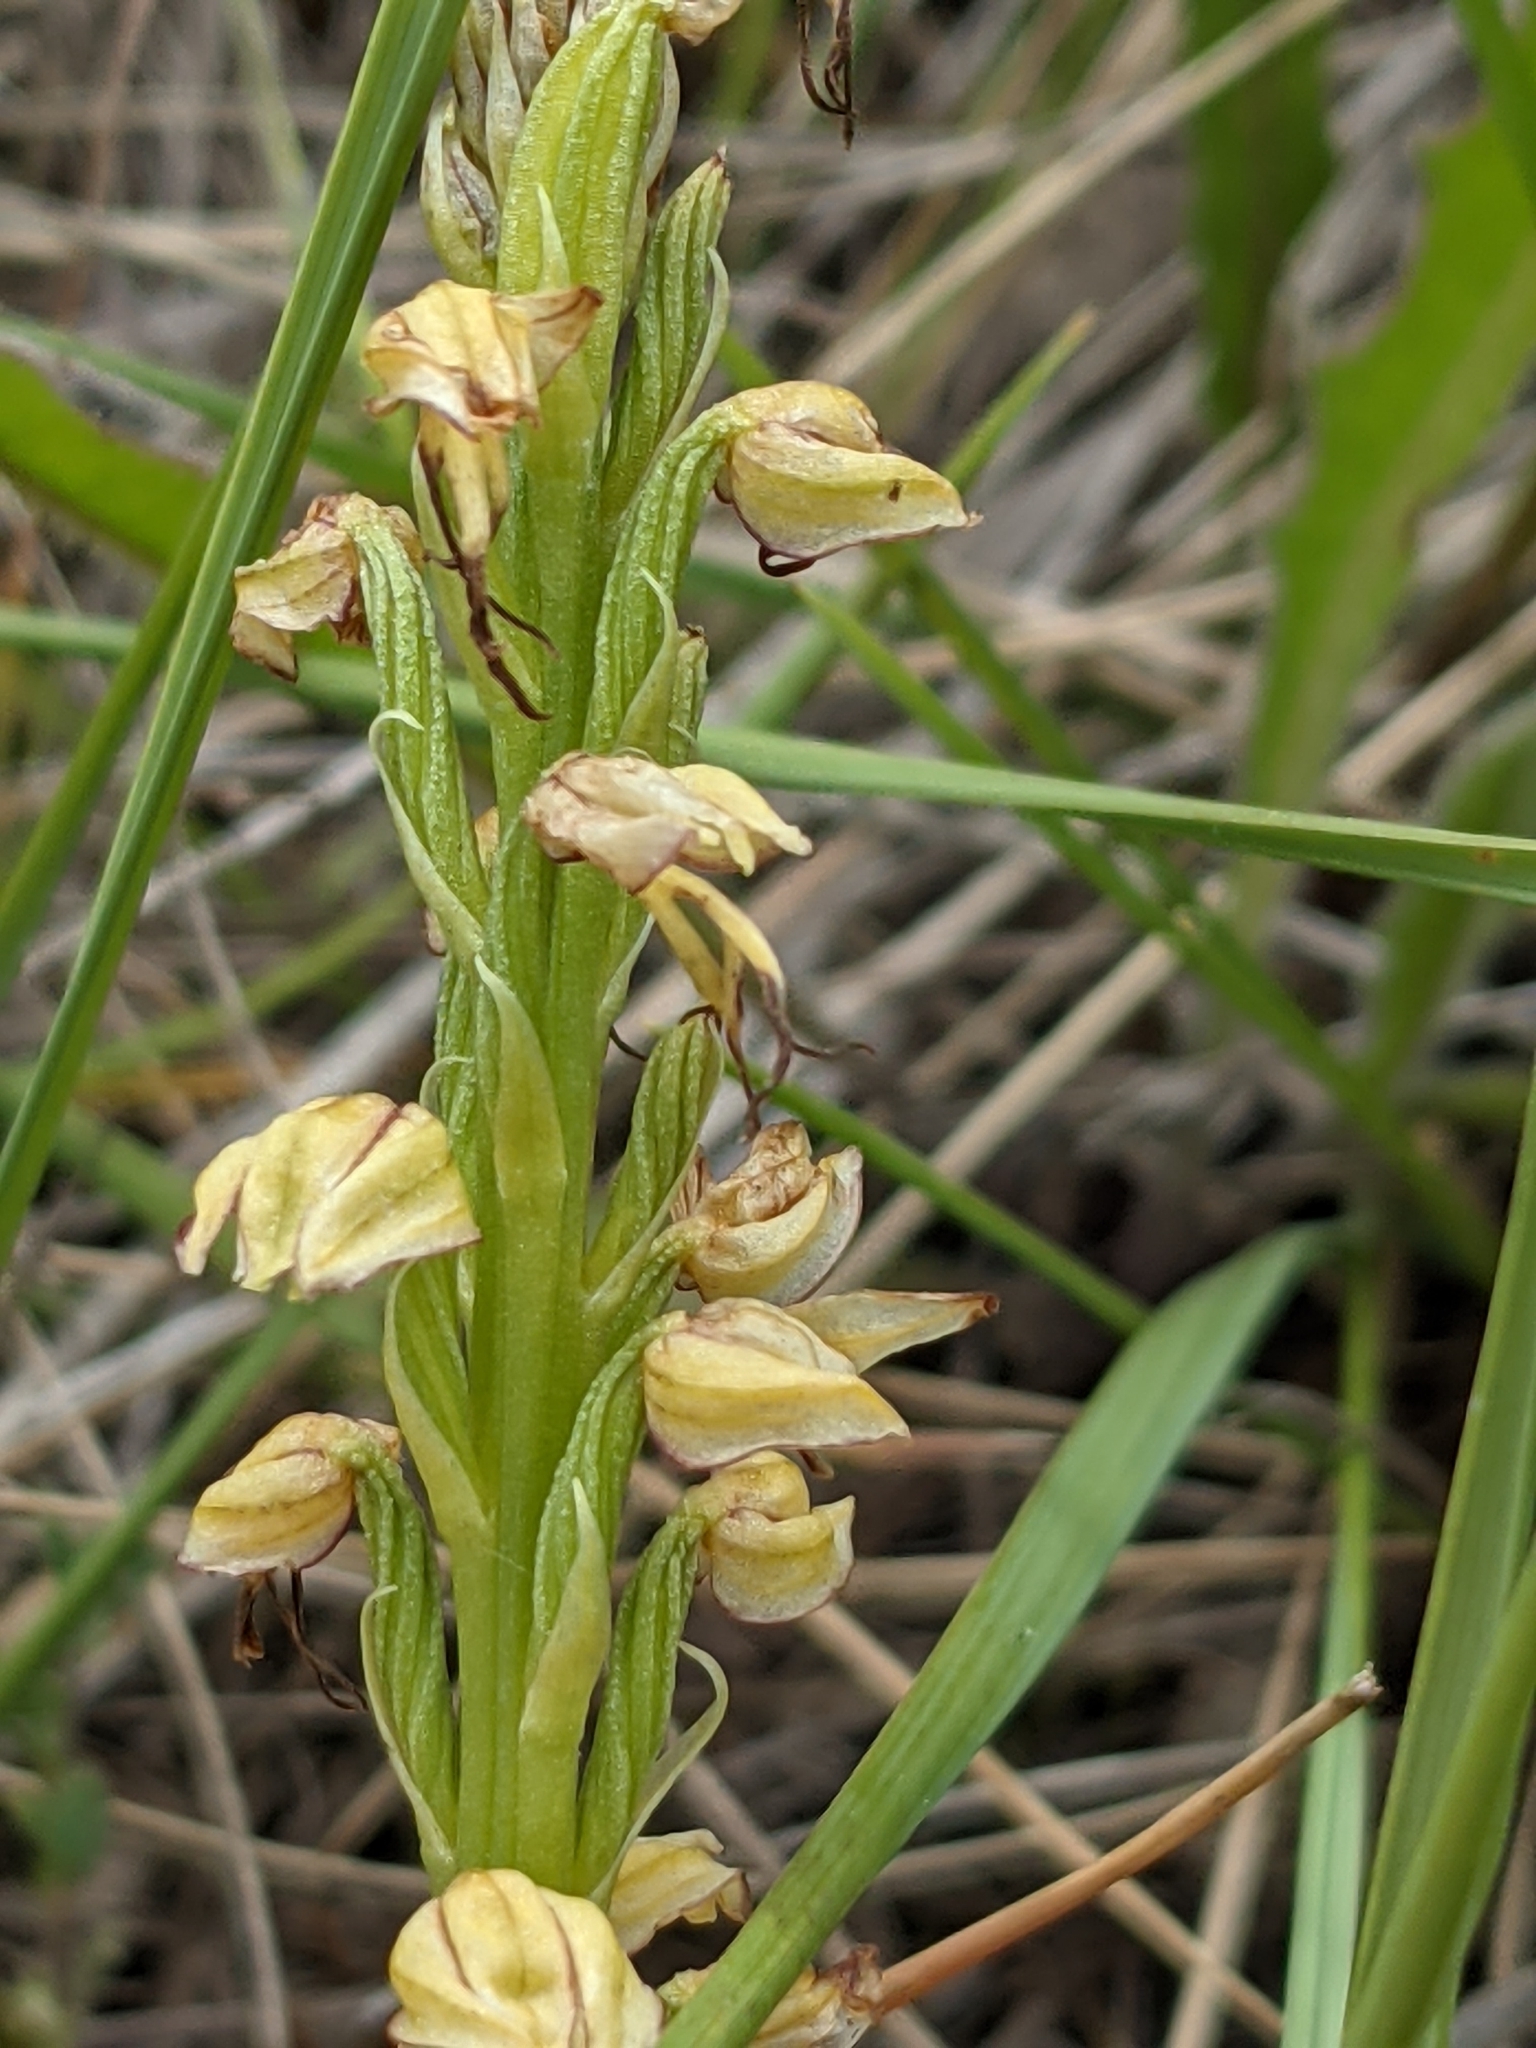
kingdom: Plantae
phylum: Tracheophyta
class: Liliopsida
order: Asparagales
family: Orchidaceae
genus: Orchis
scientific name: Orchis anthropophora
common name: Man orchid
